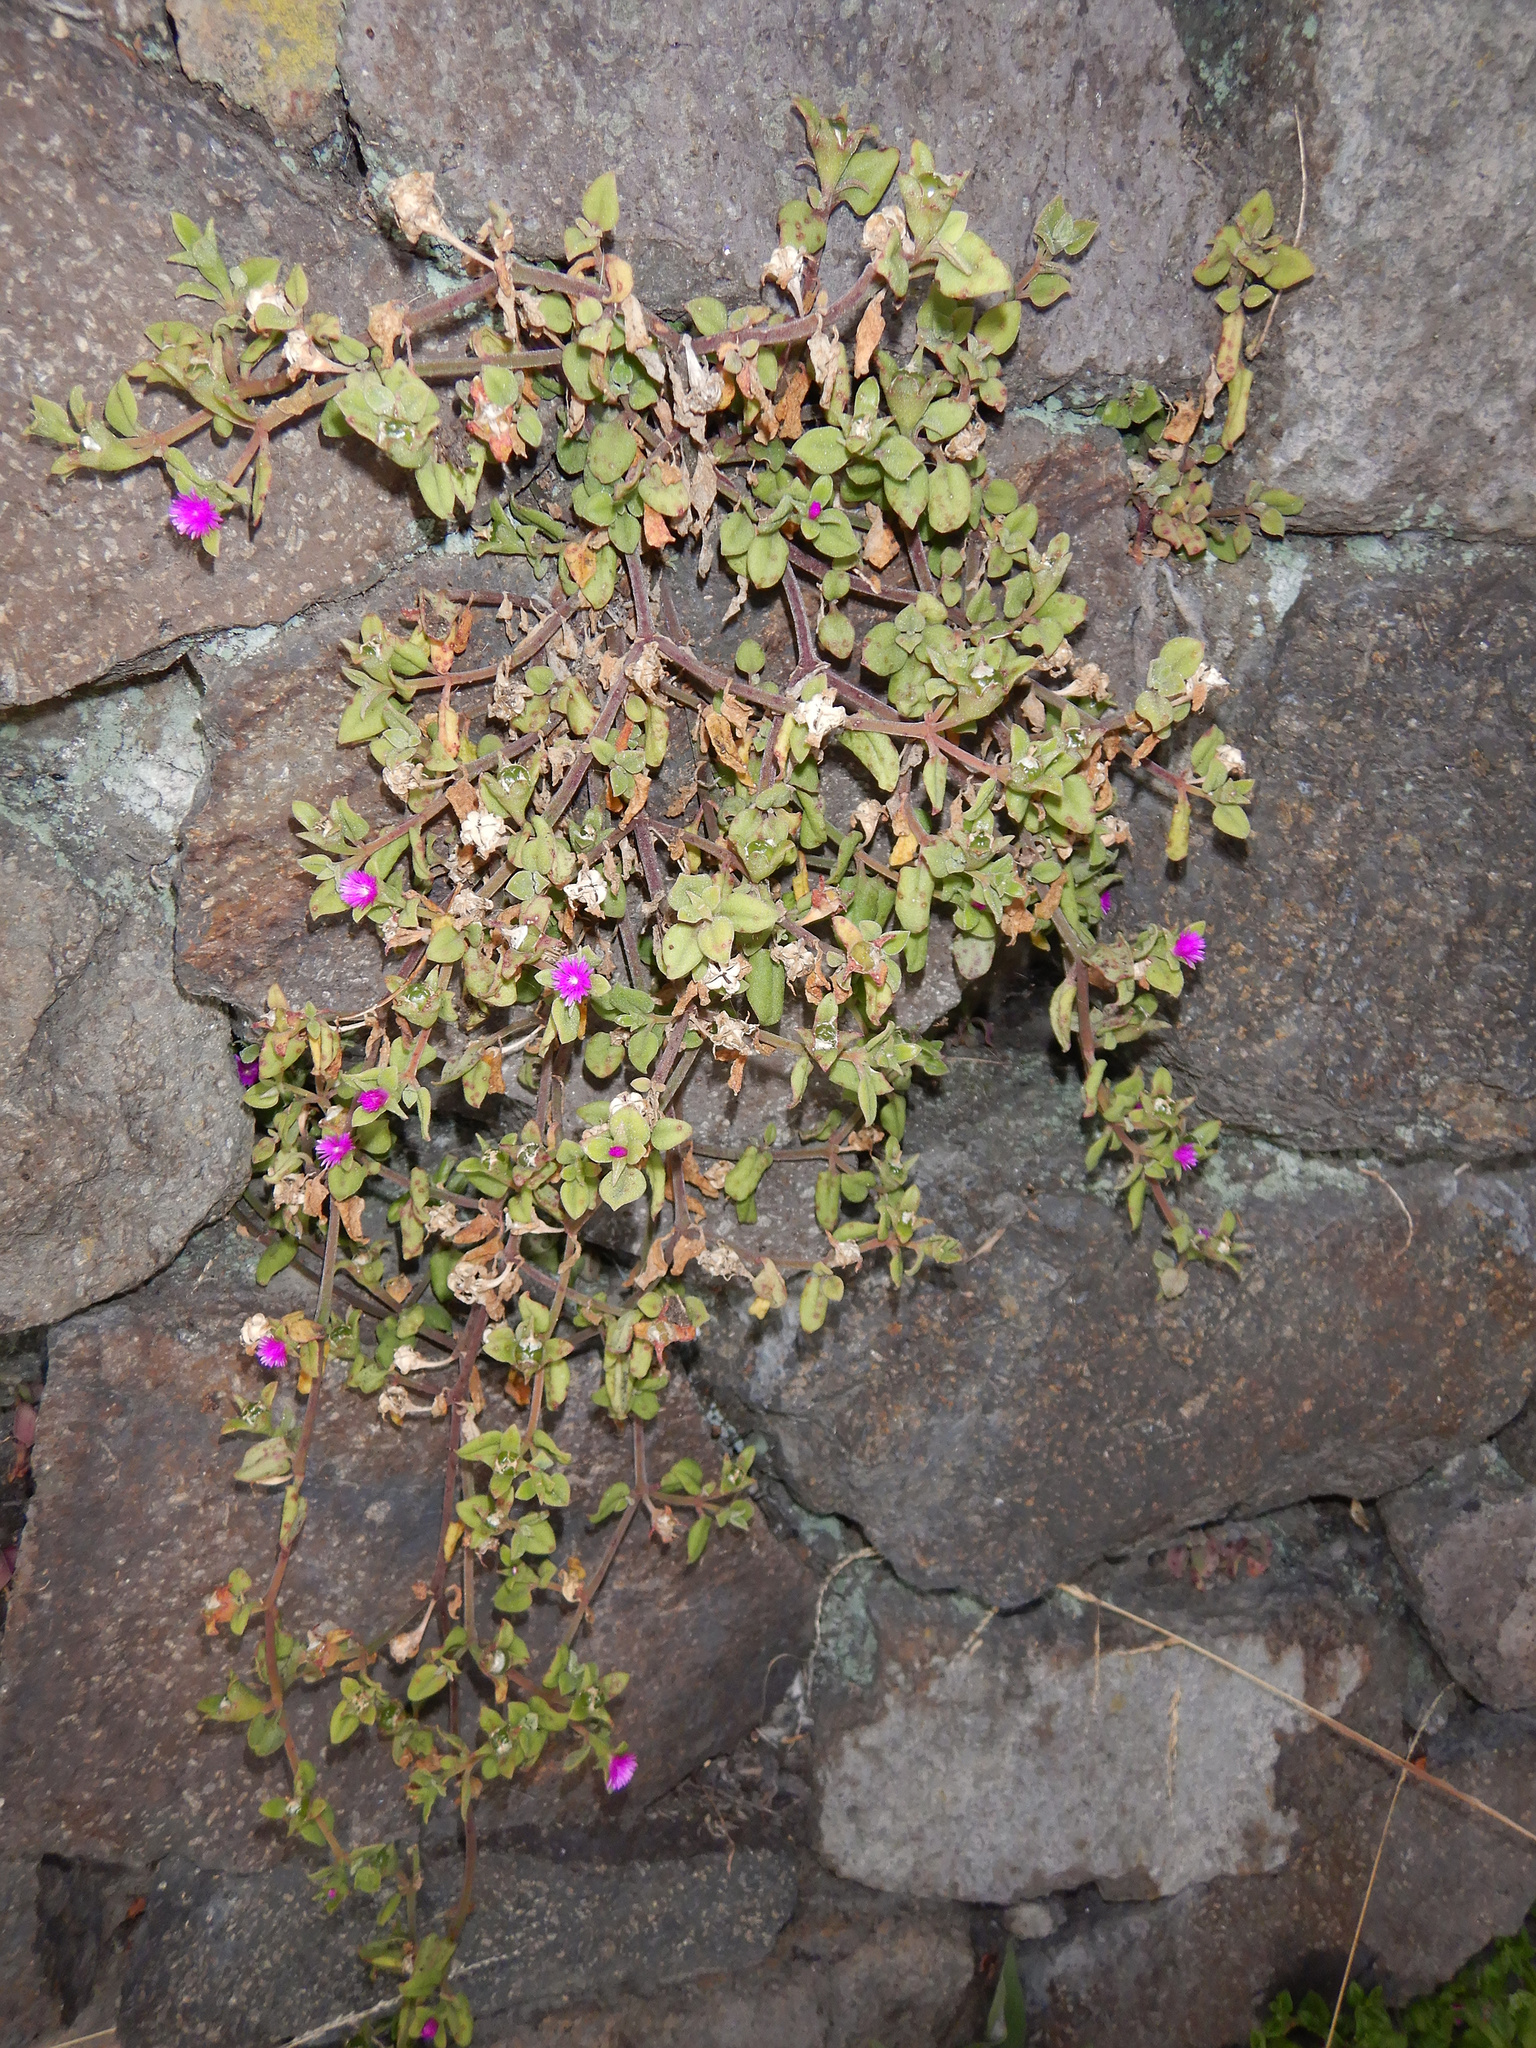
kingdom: Plantae
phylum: Tracheophyta
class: Magnoliopsida
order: Caryophyllales
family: Aizoaceae
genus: Mesembryanthemum
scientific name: Mesembryanthemum cordifolium
